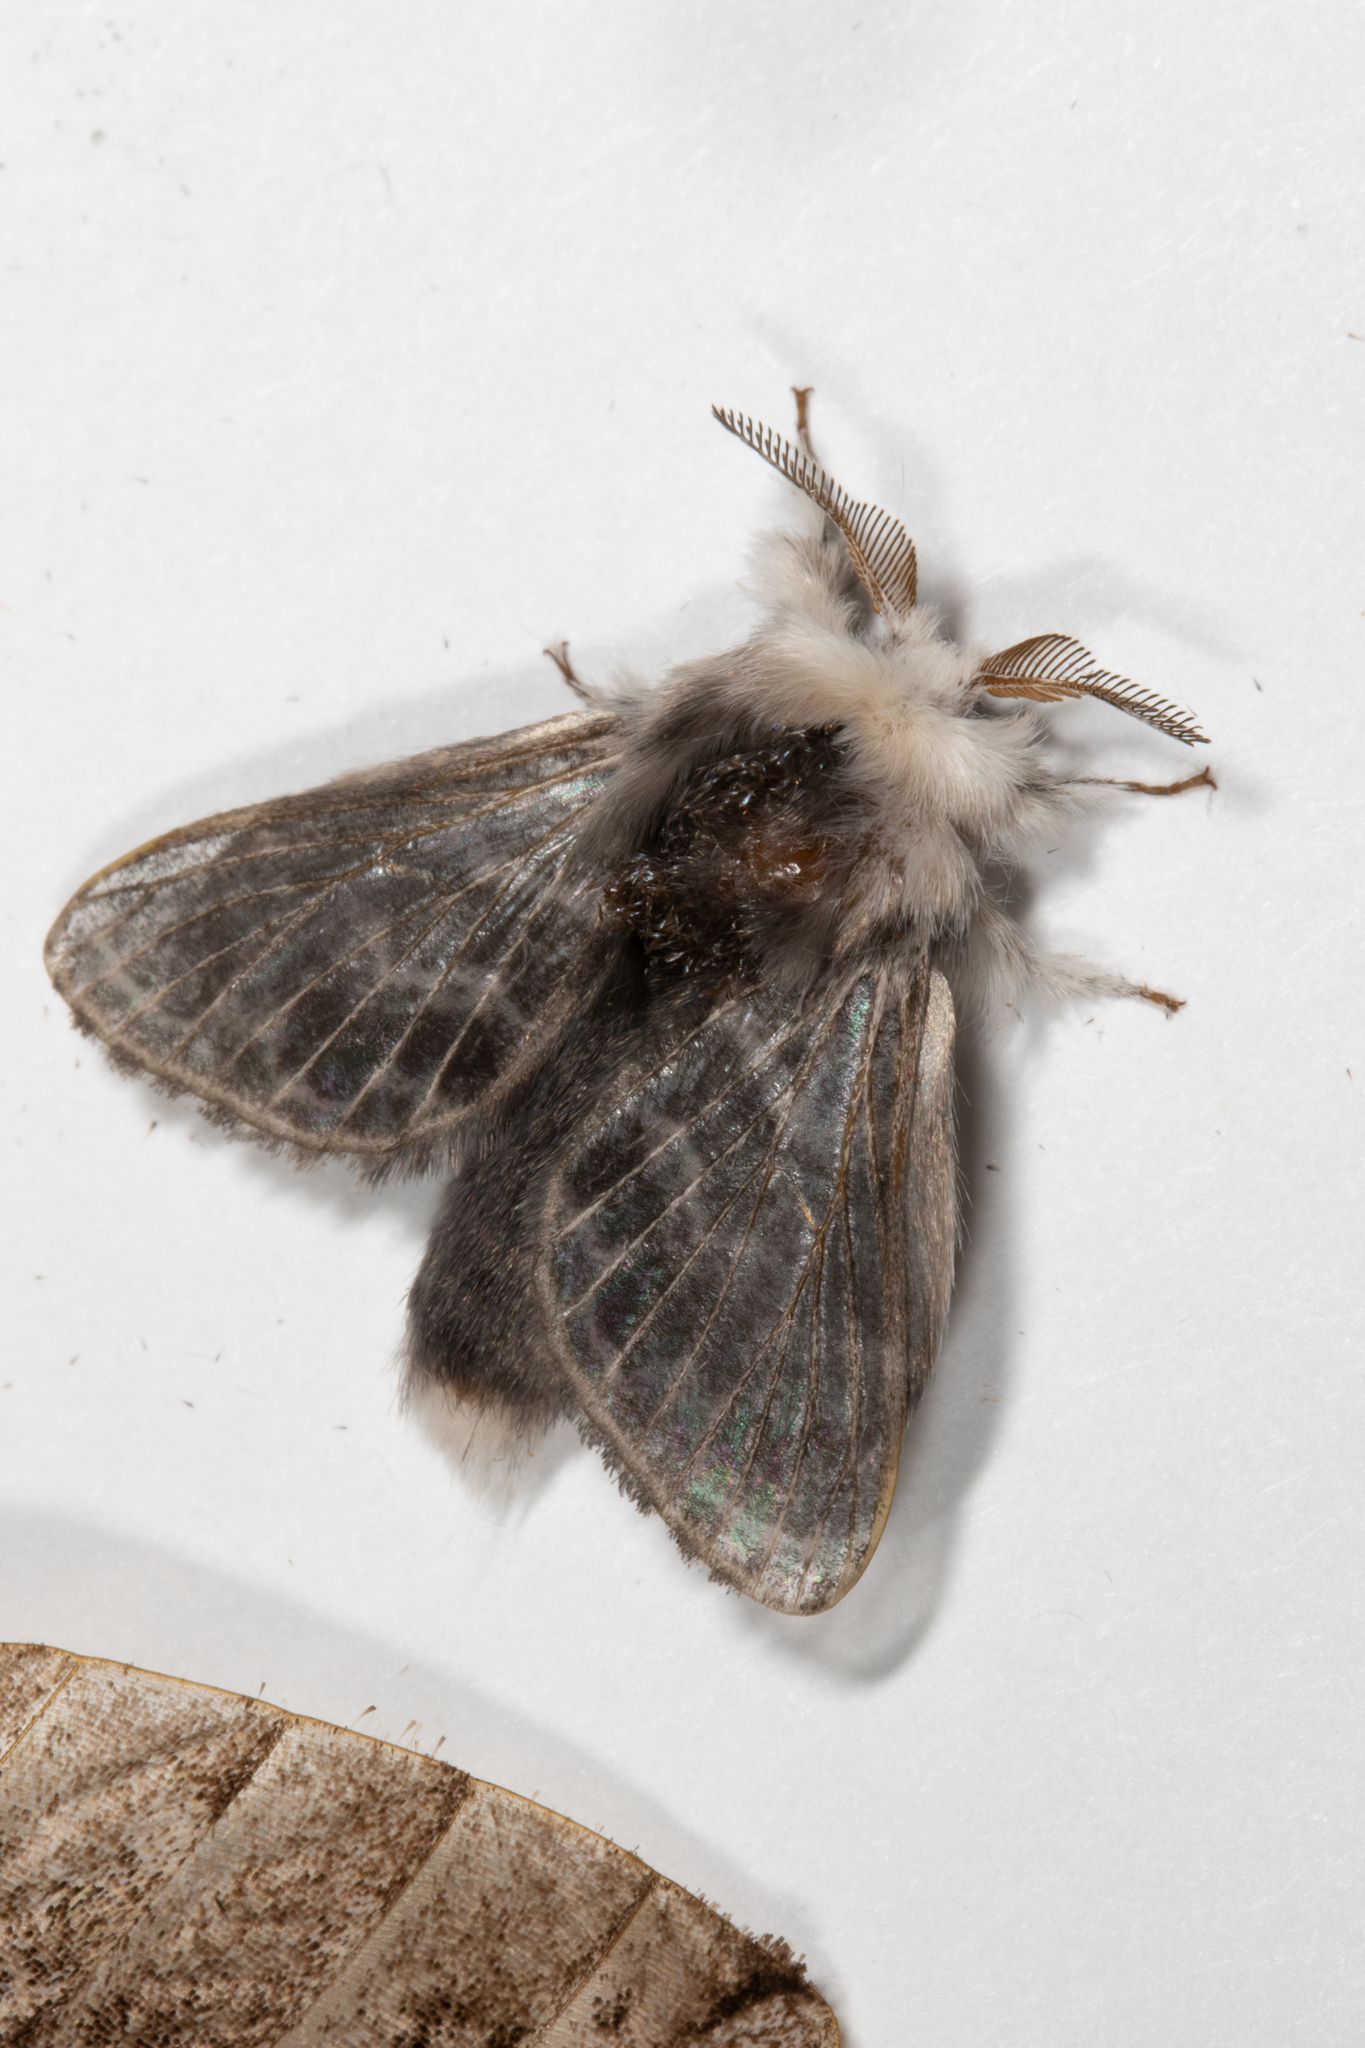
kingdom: Animalia
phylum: Arthropoda
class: Insecta
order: Lepidoptera
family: Lasiocampidae
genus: Tolype
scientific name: Tolype laricis
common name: Larch tolype moth
